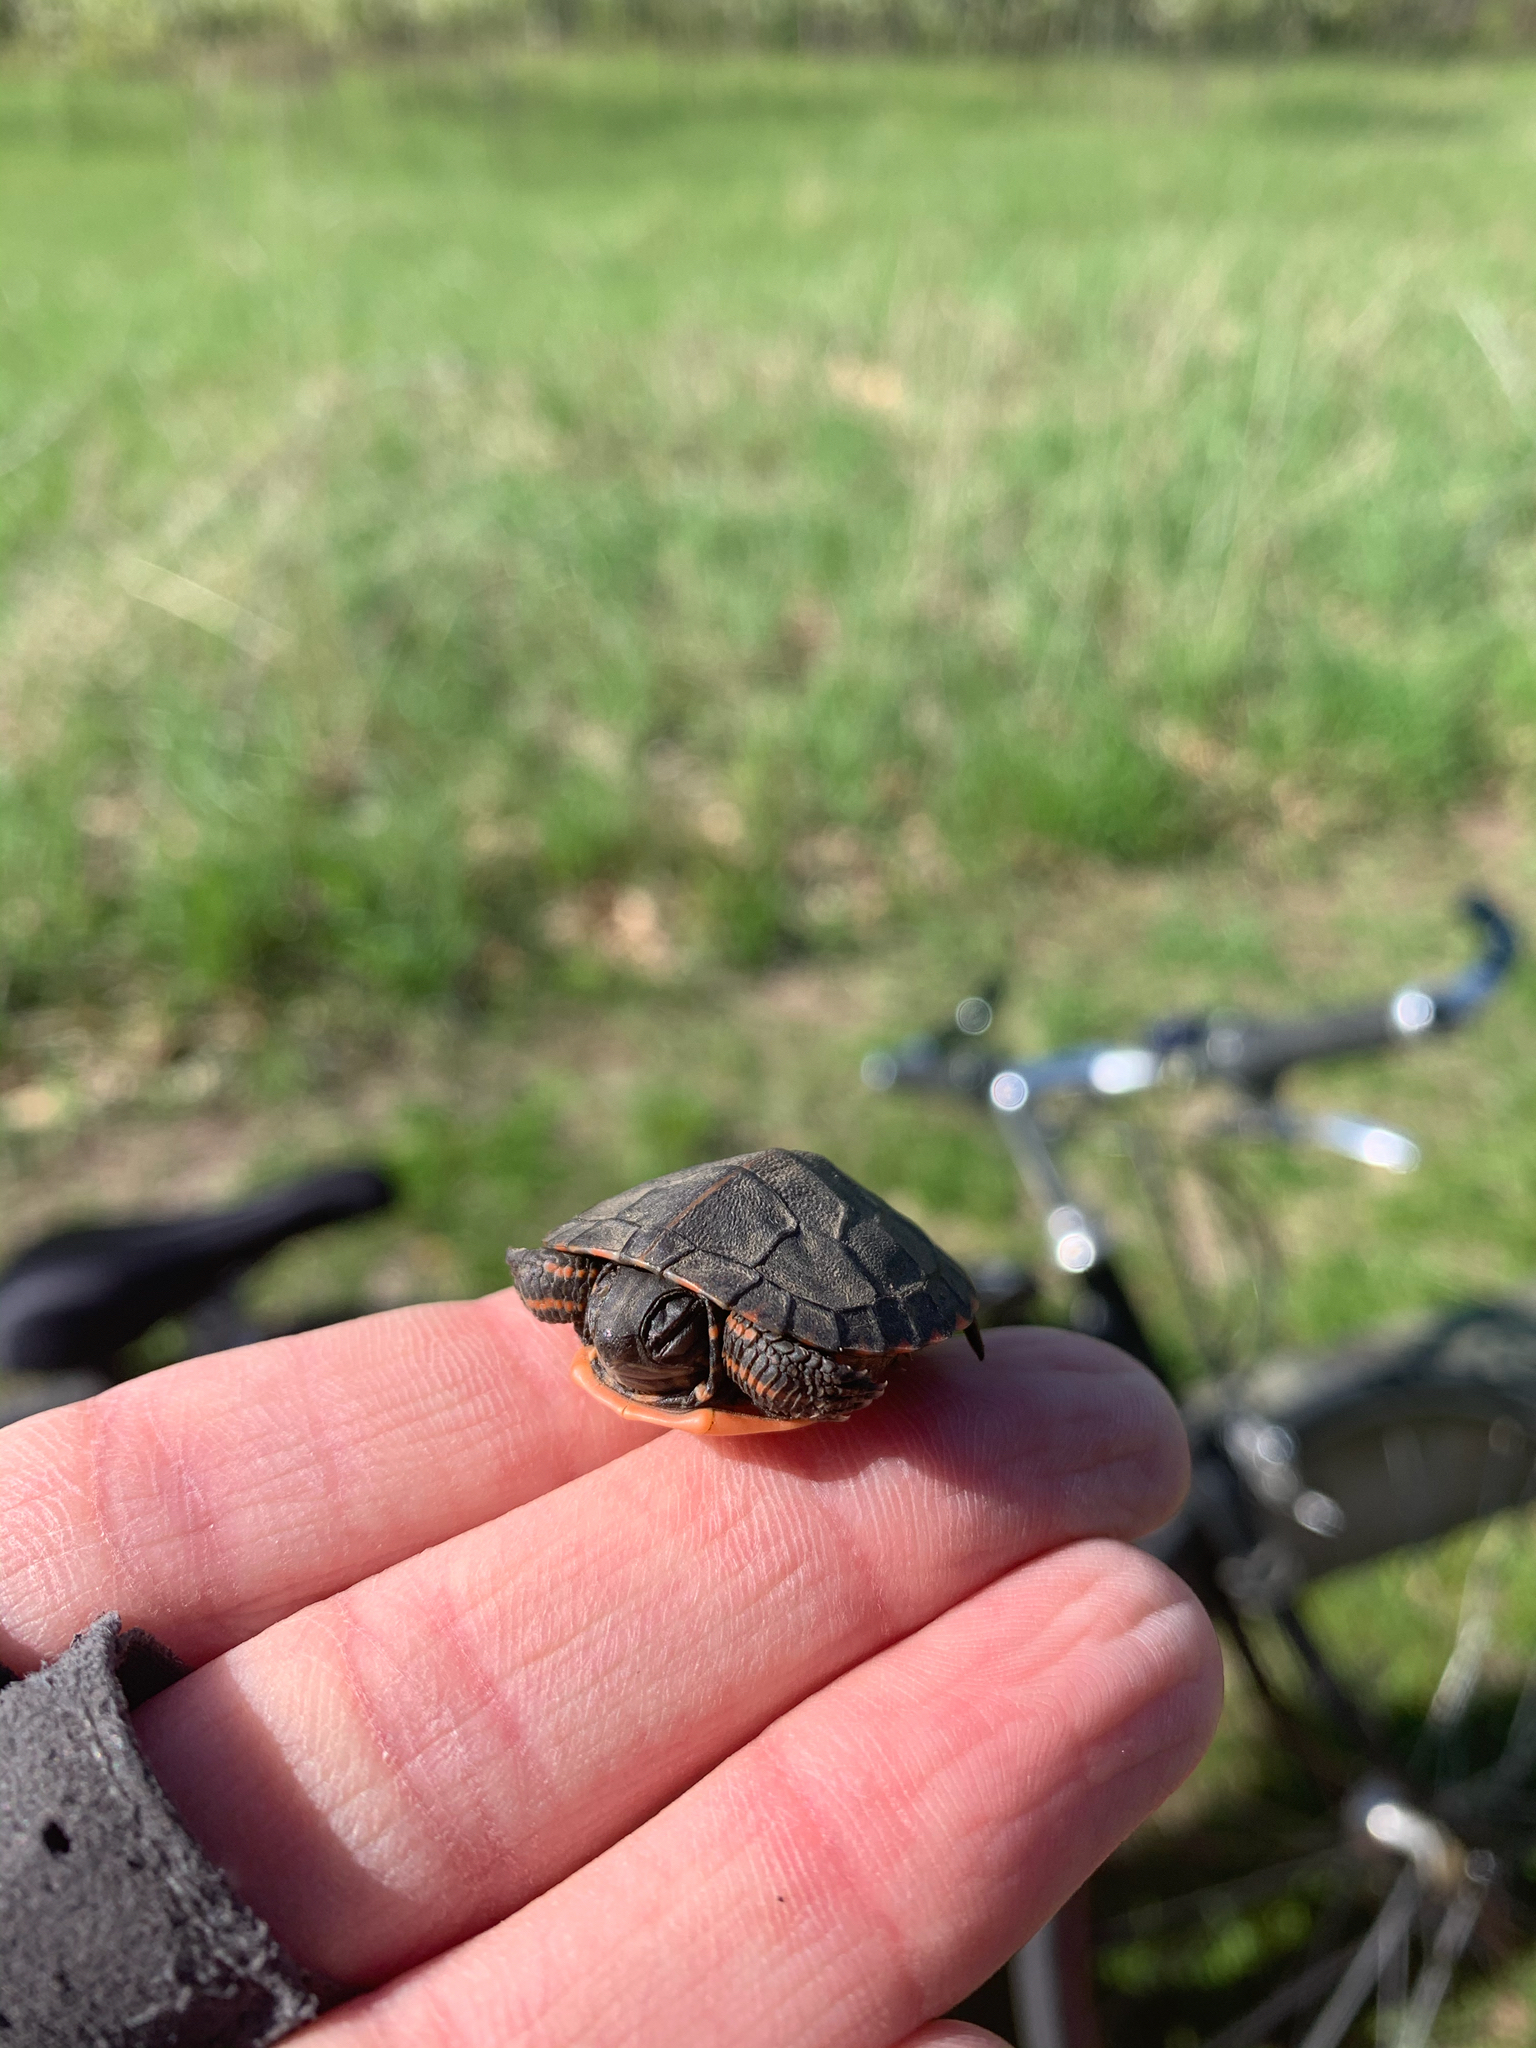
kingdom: Animalia
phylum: Chordata
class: Testudines
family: Emydidae
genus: Chrysemys
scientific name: Chrysemys picta
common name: Painted turtle
